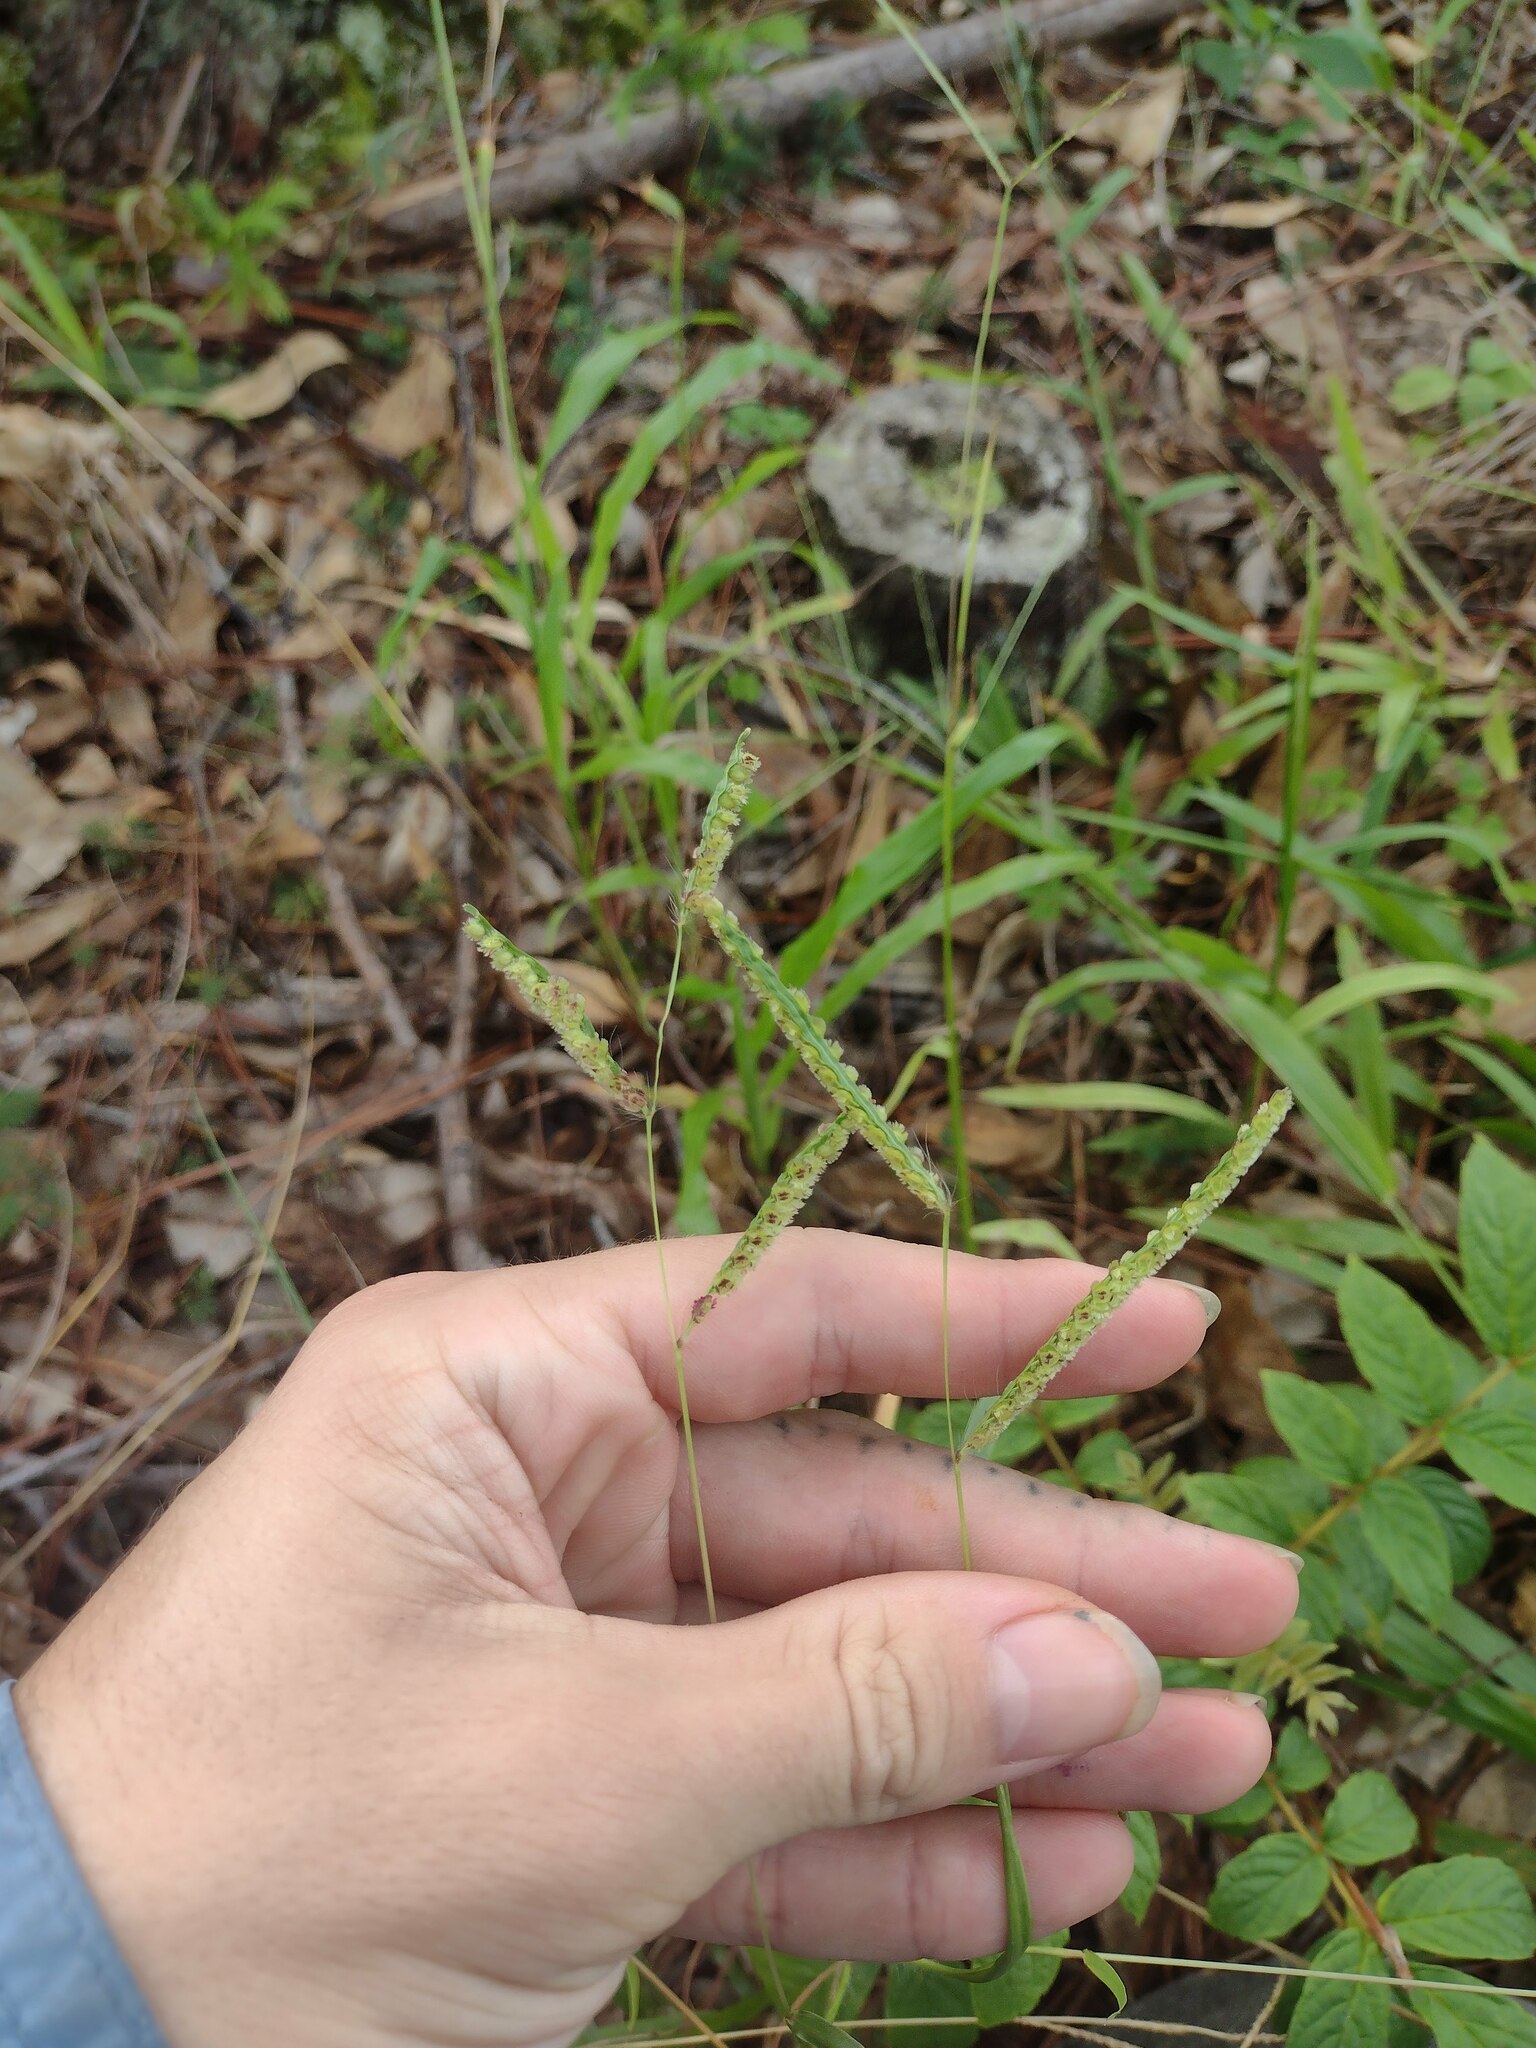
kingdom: Plantae
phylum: Tracheophyta
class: Liliopsida
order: Poales
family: Poaceae
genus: Paspalum
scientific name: Paspalum fimbriatum
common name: Panama crowngrass
